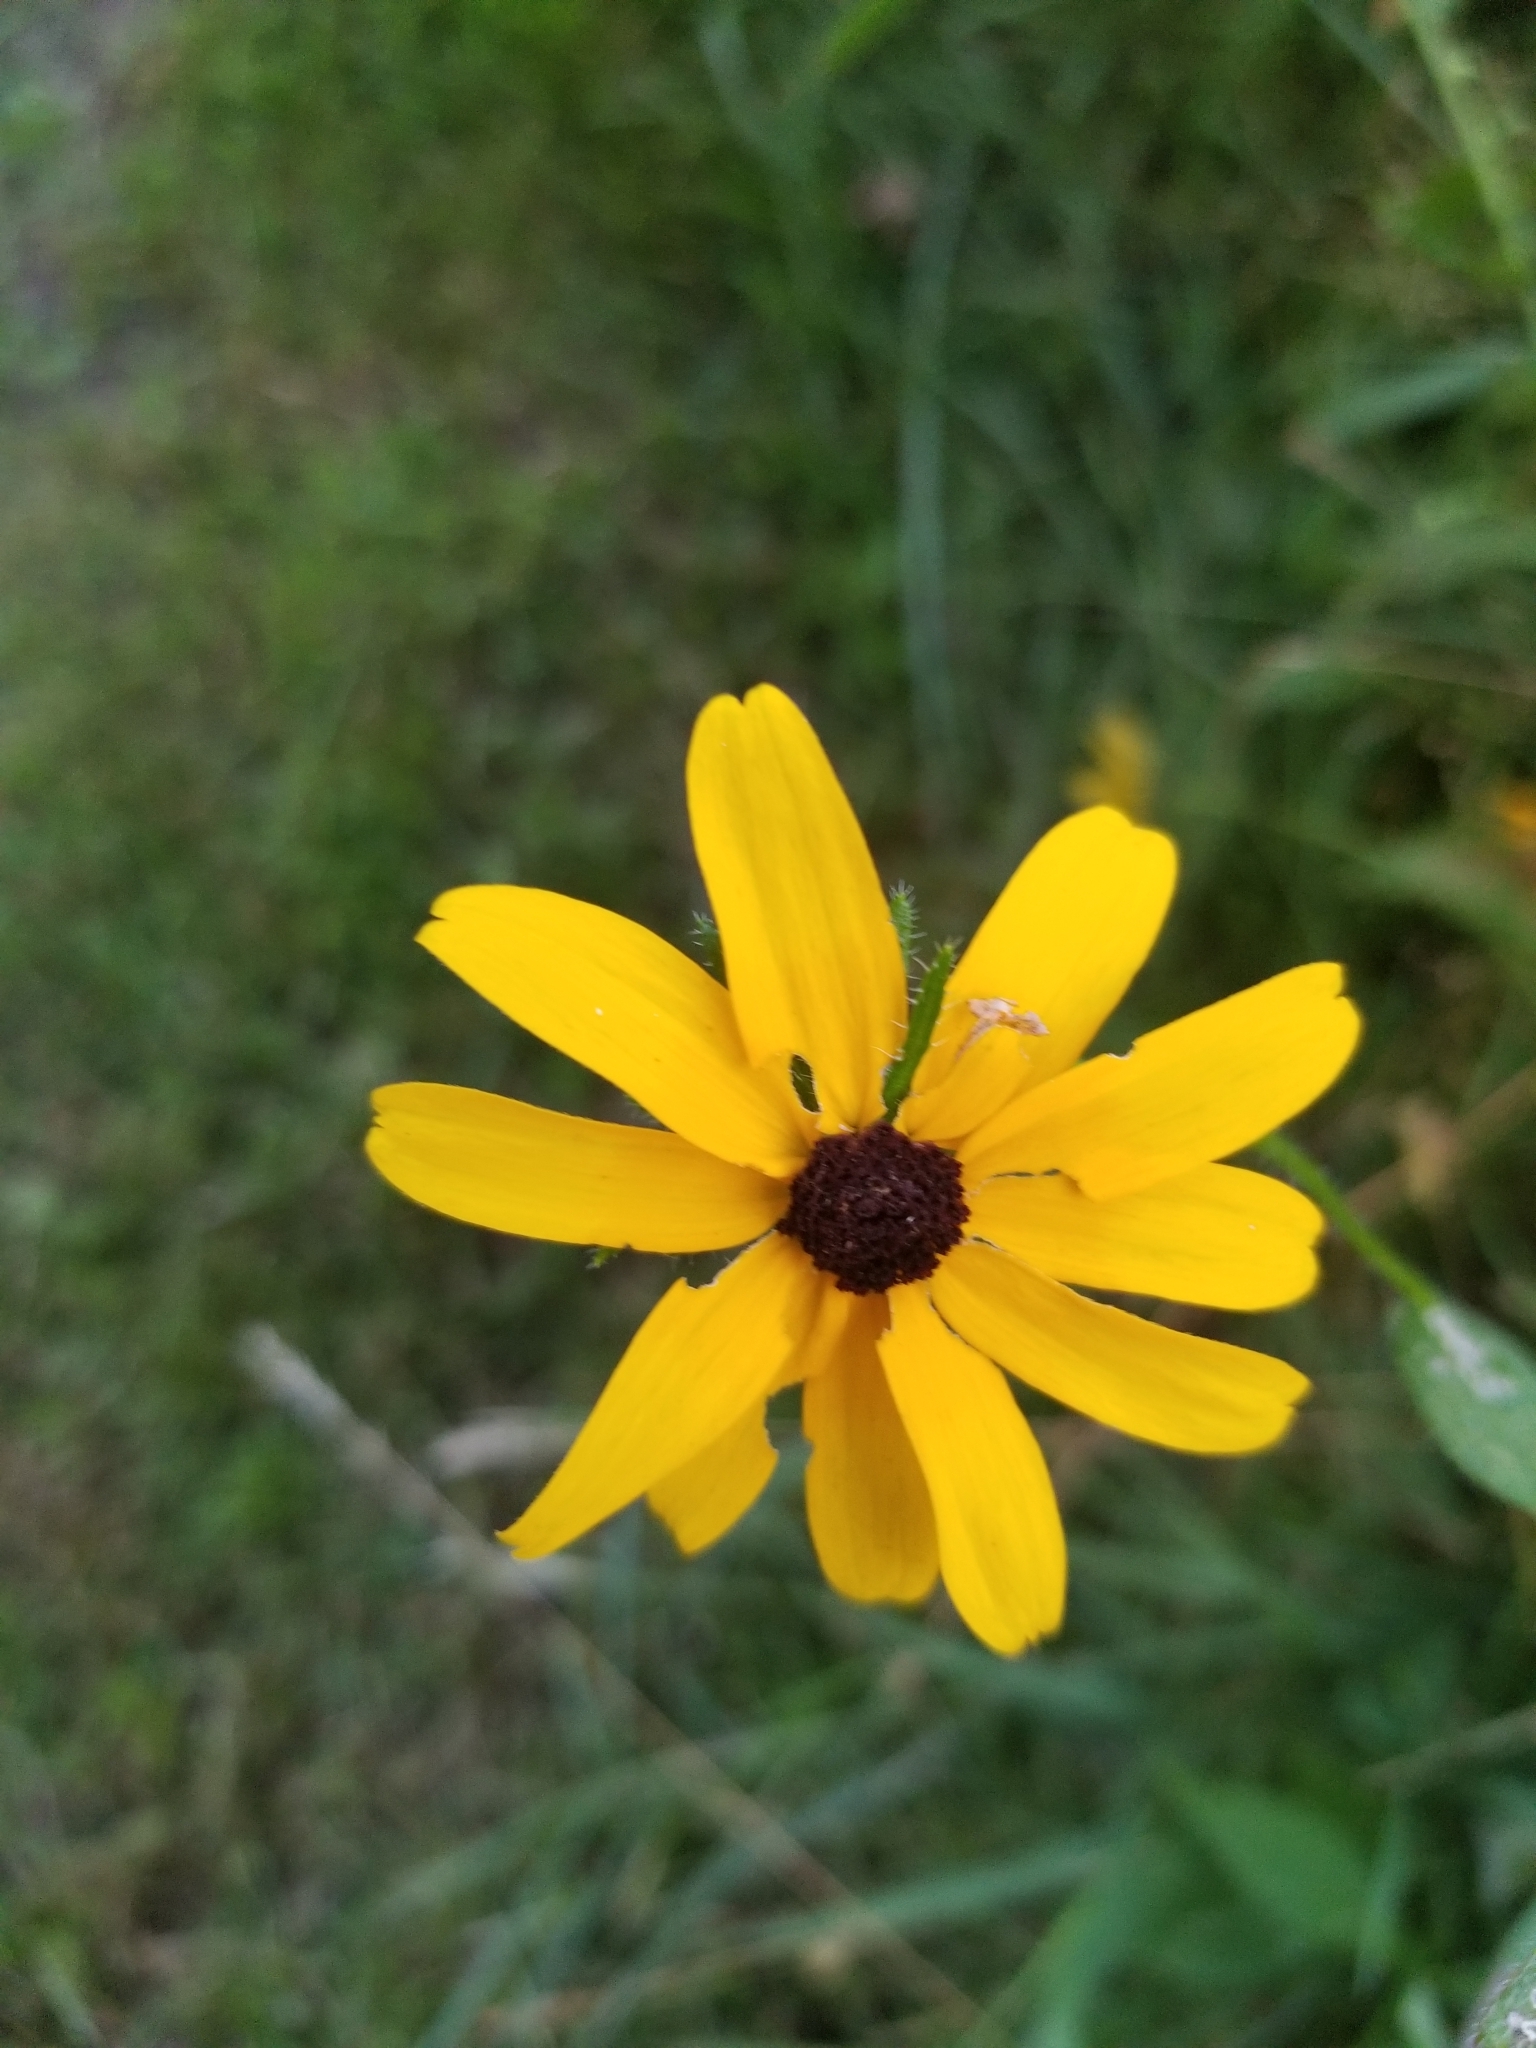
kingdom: Plantae
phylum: Tracheophyta
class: Magnoliopsida
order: Asterales
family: Asteraceae
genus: Rudbeckia
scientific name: Rudbeckia hirta
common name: Black-eyed-susan
